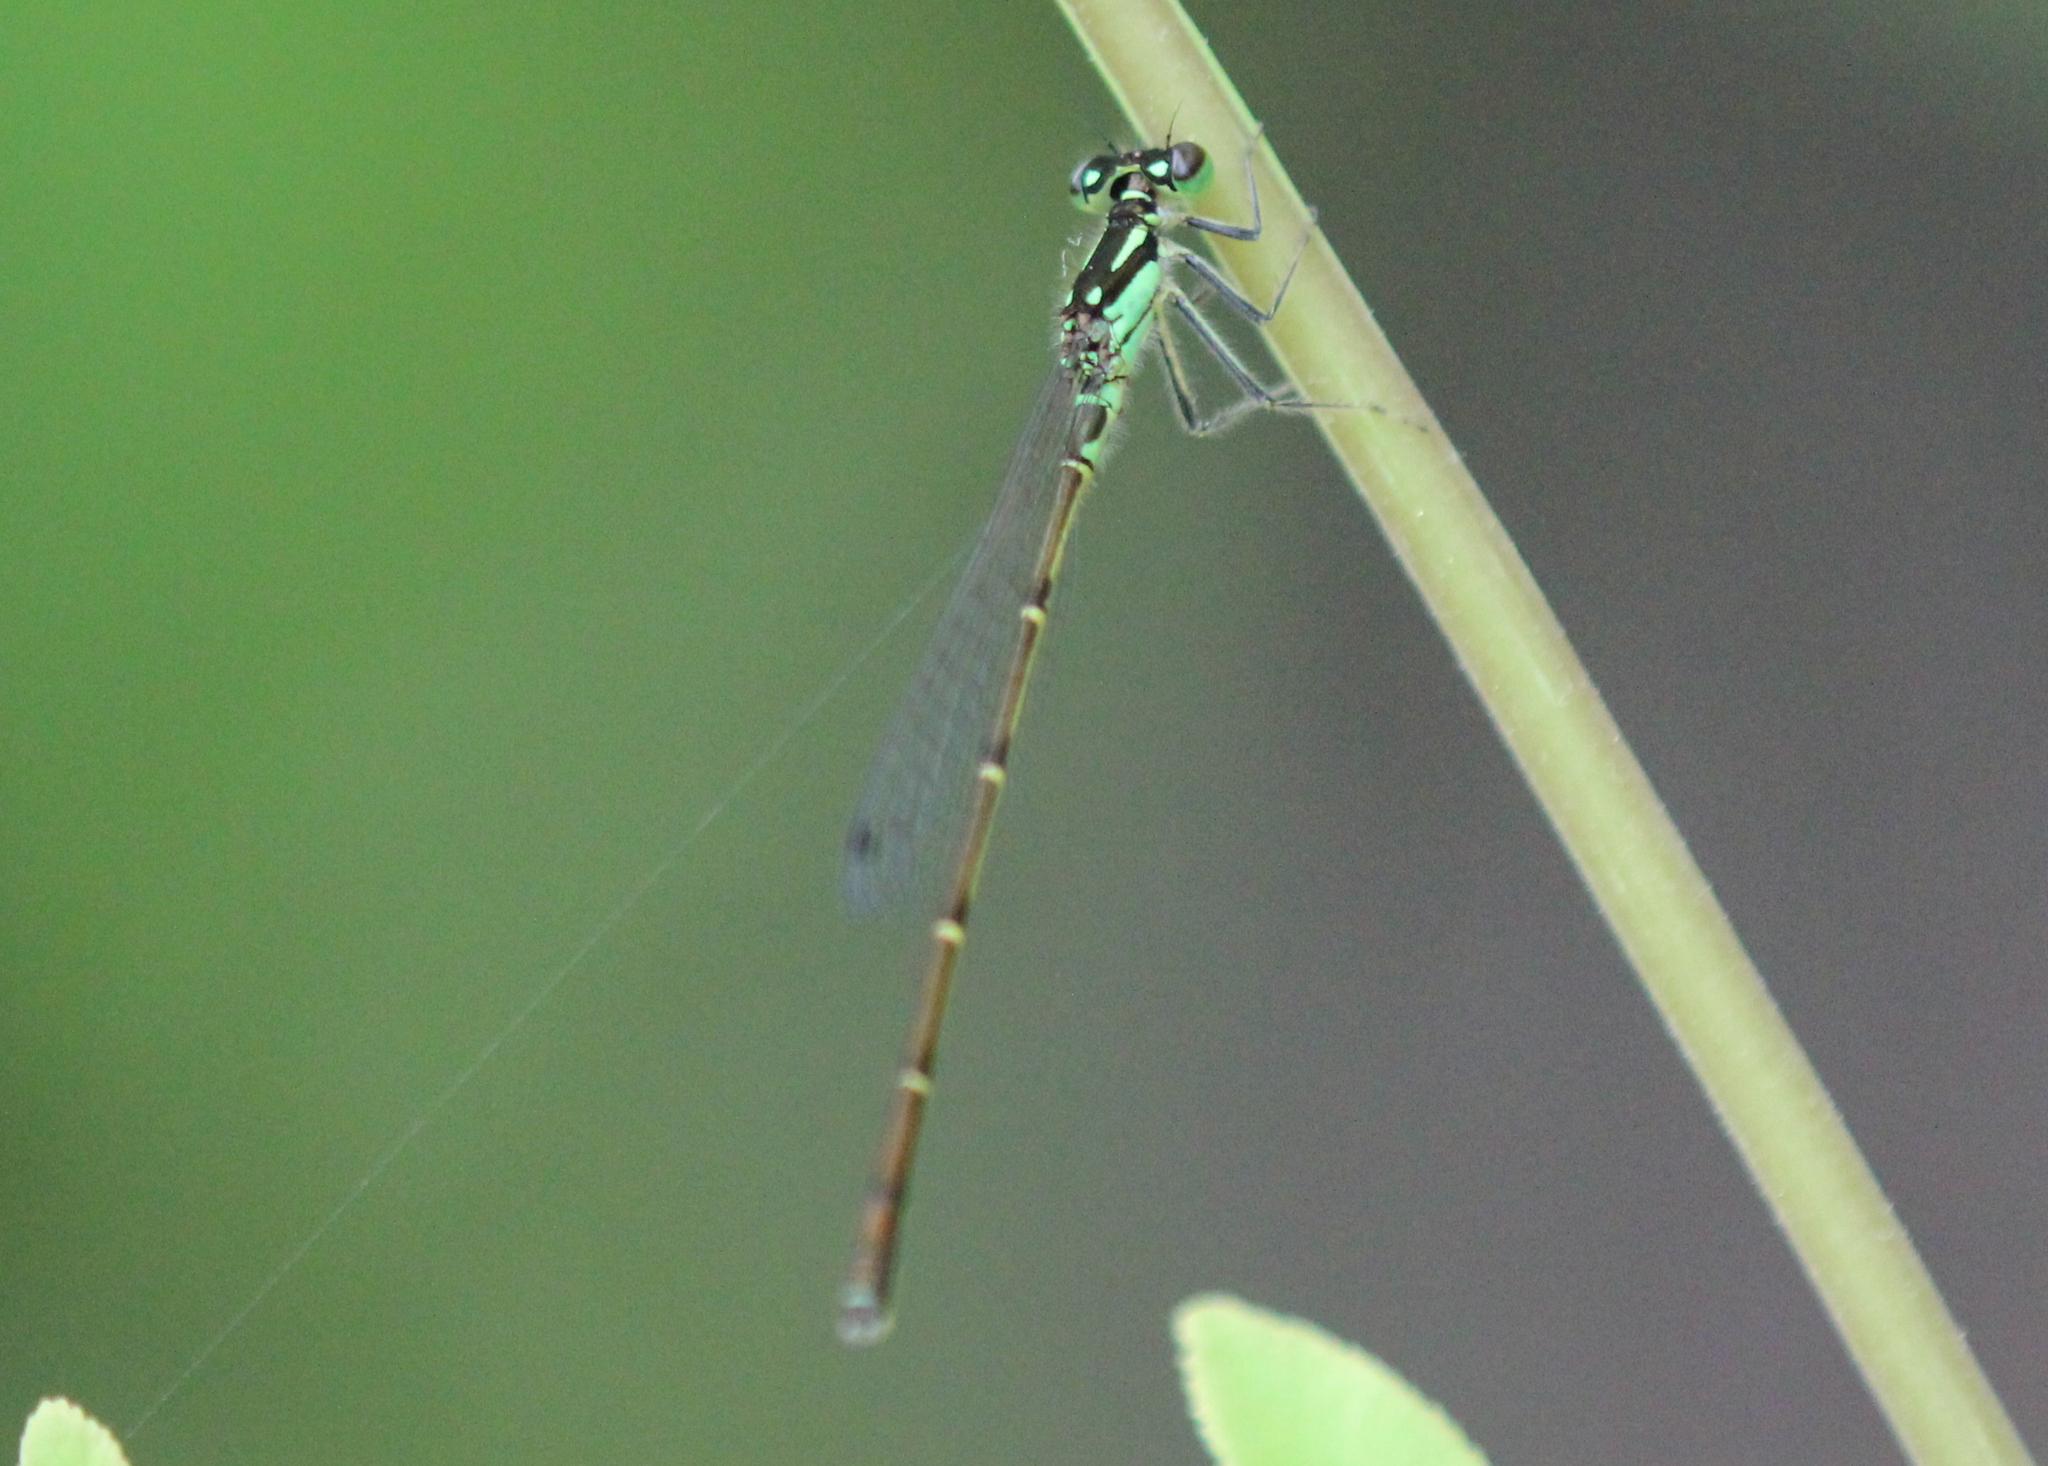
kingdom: Animalia
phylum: Arthropoda
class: Insecta
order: Odonata
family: Coenagrionidae
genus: Ischnura
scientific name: Ischnura posita
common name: Fragile forktail
